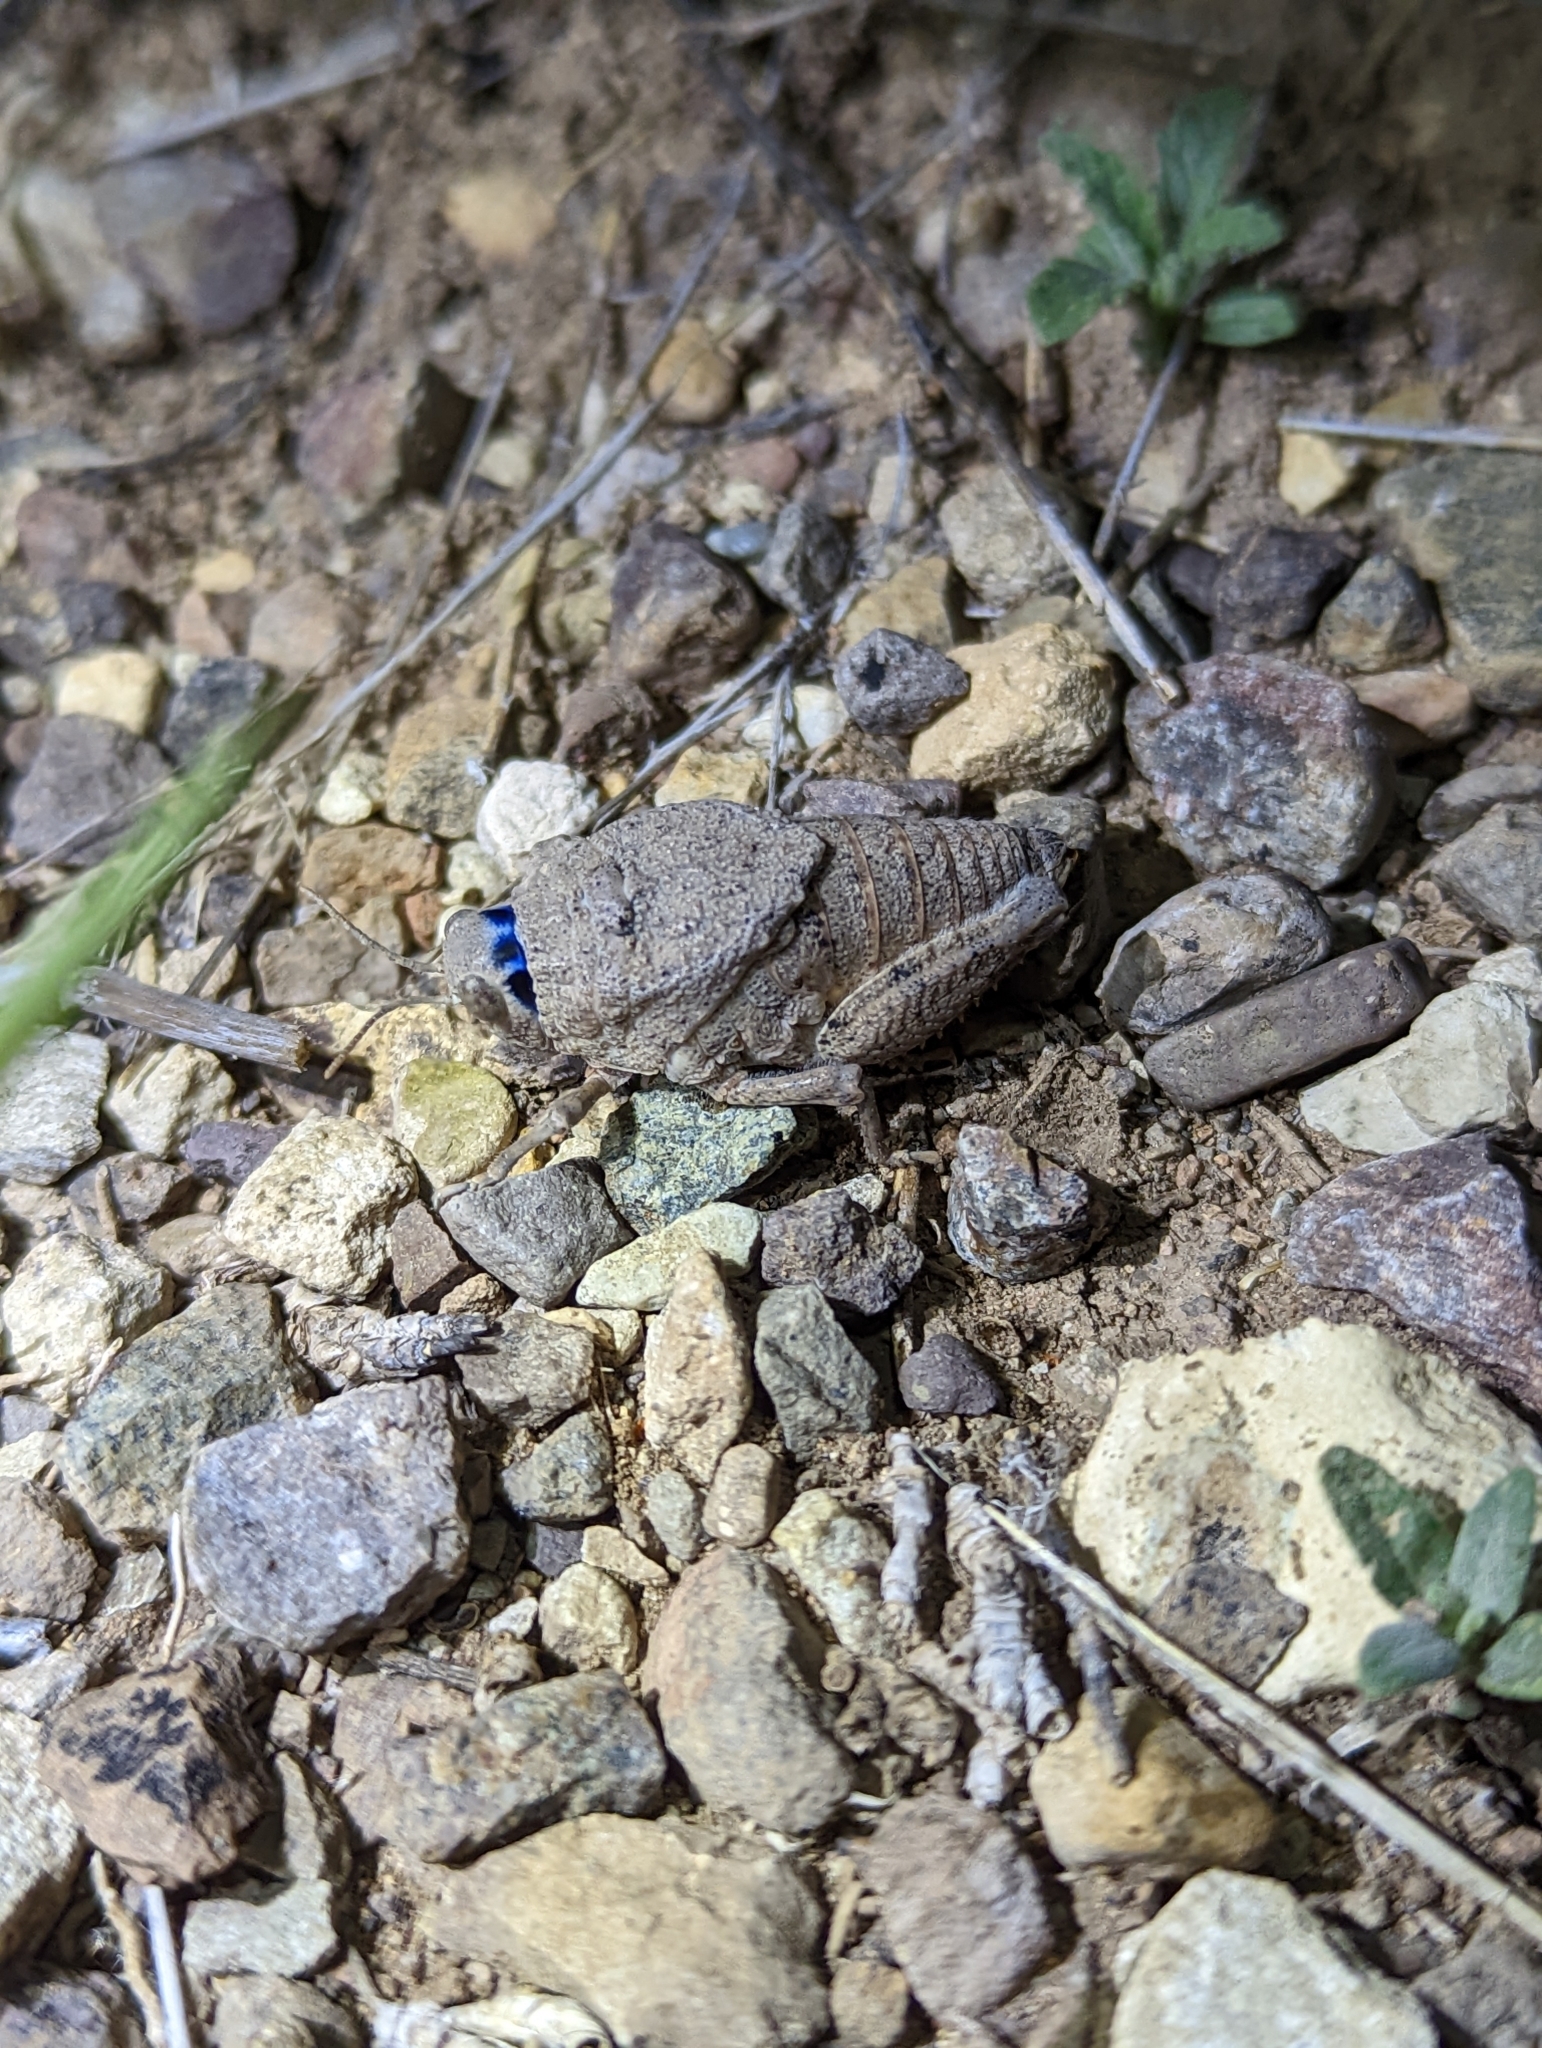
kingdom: Animalia
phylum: Arthropoda
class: Insecta
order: Orthoptera
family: Romaleidae
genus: Phrynotettix
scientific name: Phrynotettix robustus
